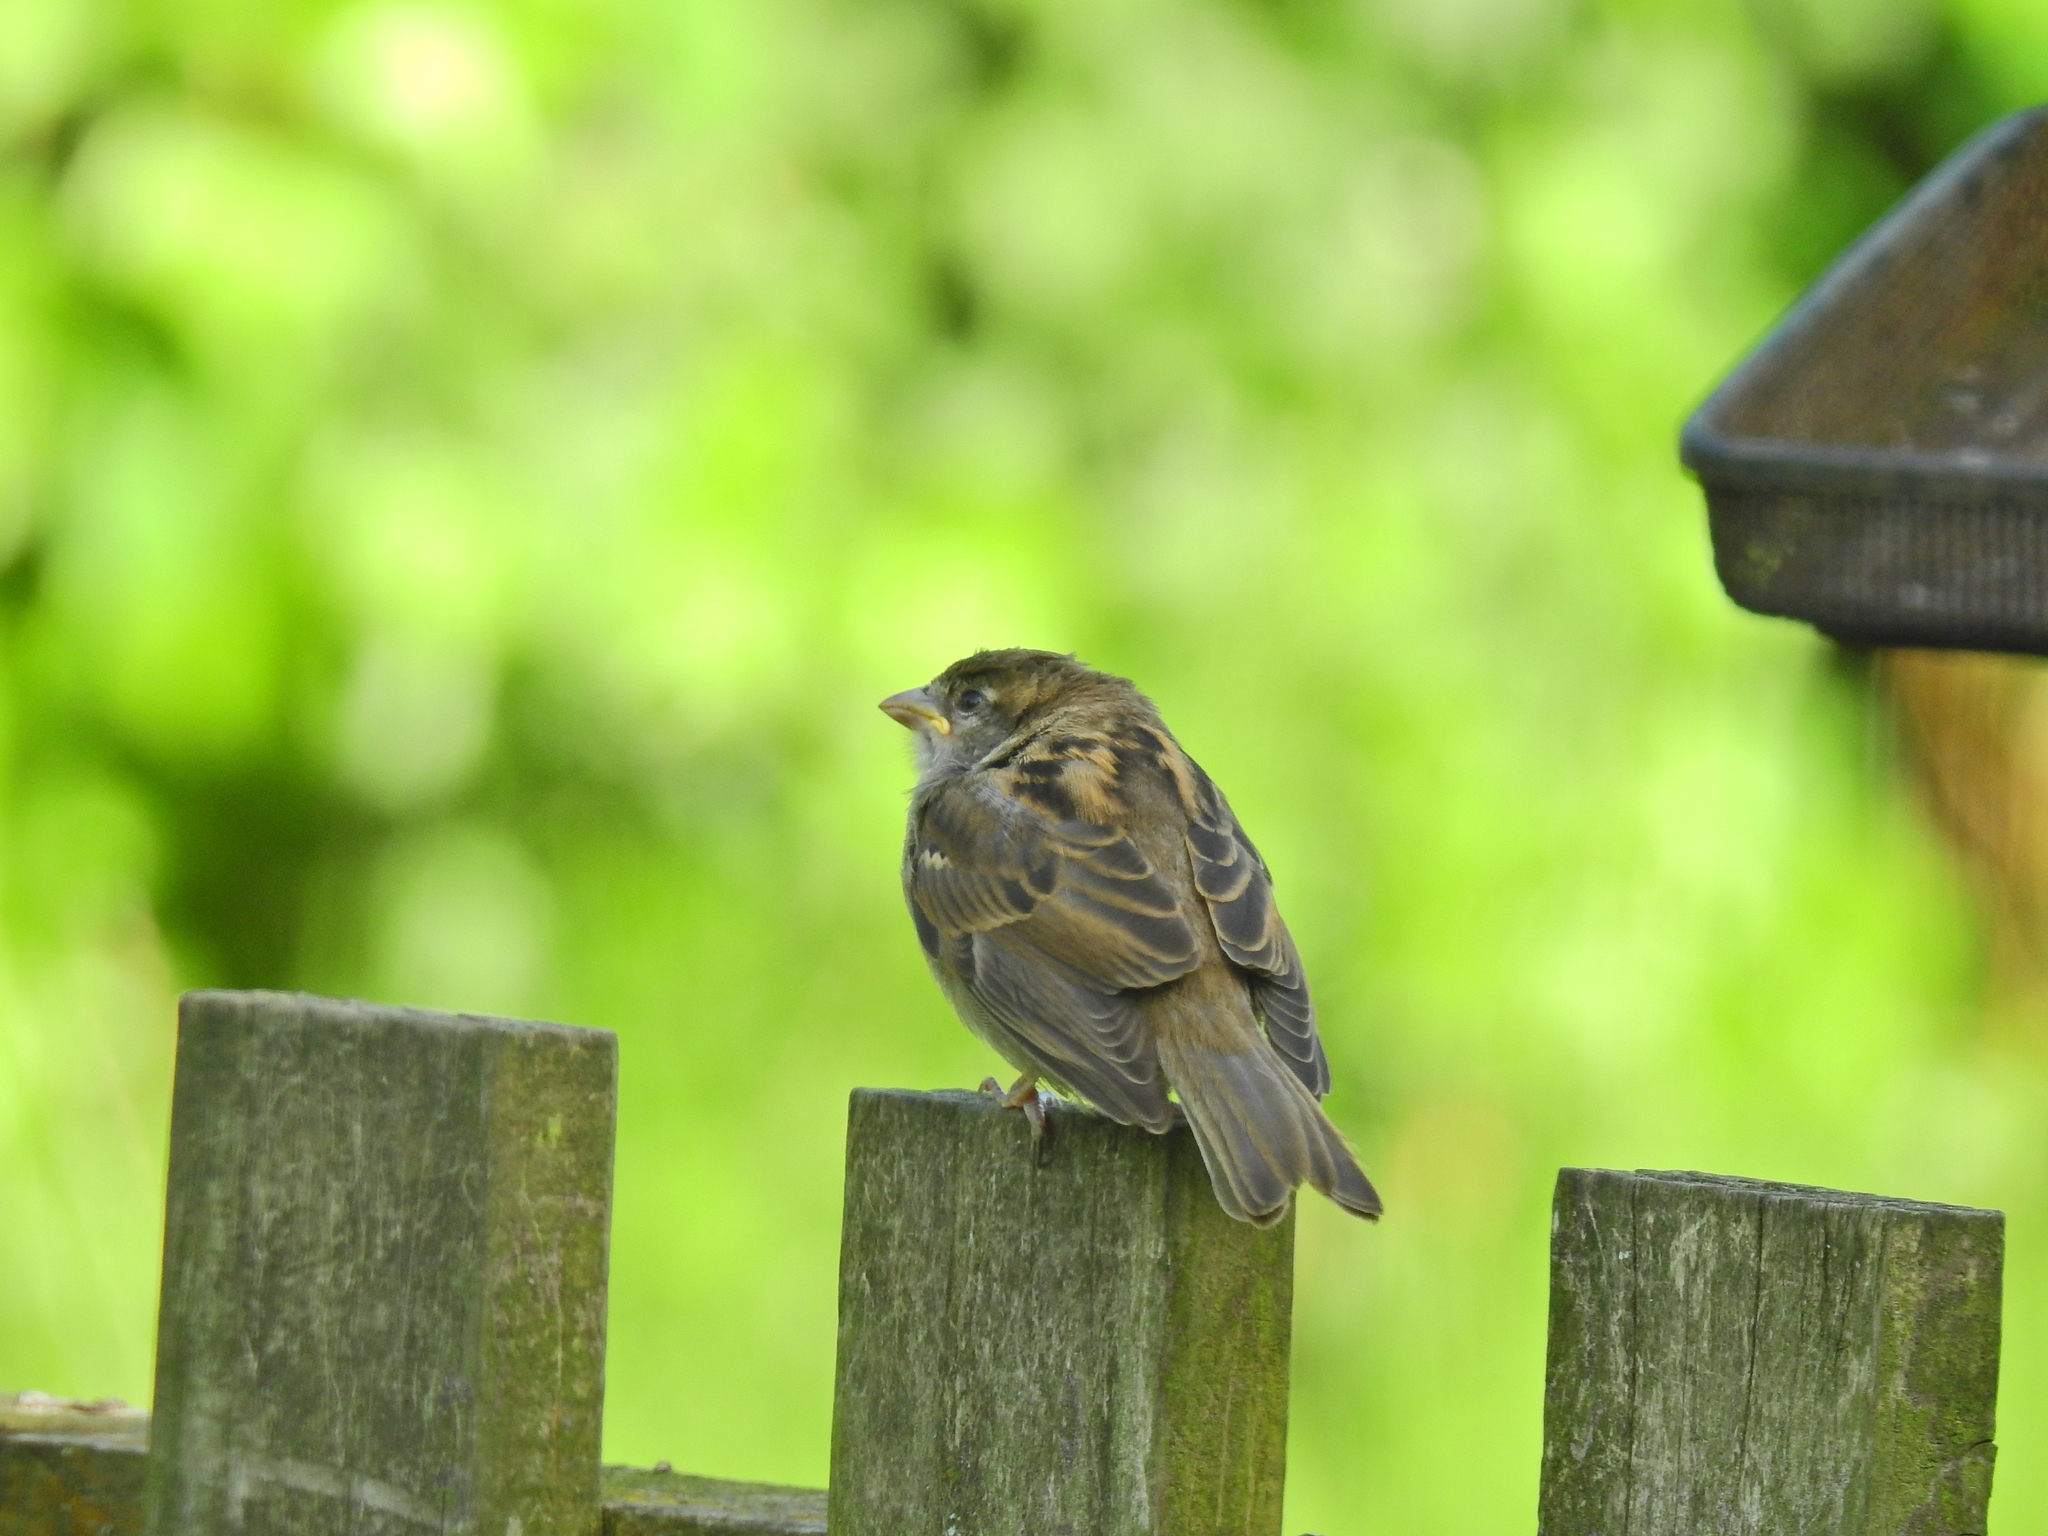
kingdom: Animalia
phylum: Chordata
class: Aves
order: Passeriformes
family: Passeridae
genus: Passer
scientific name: Passer domesticus
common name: House sparrow
